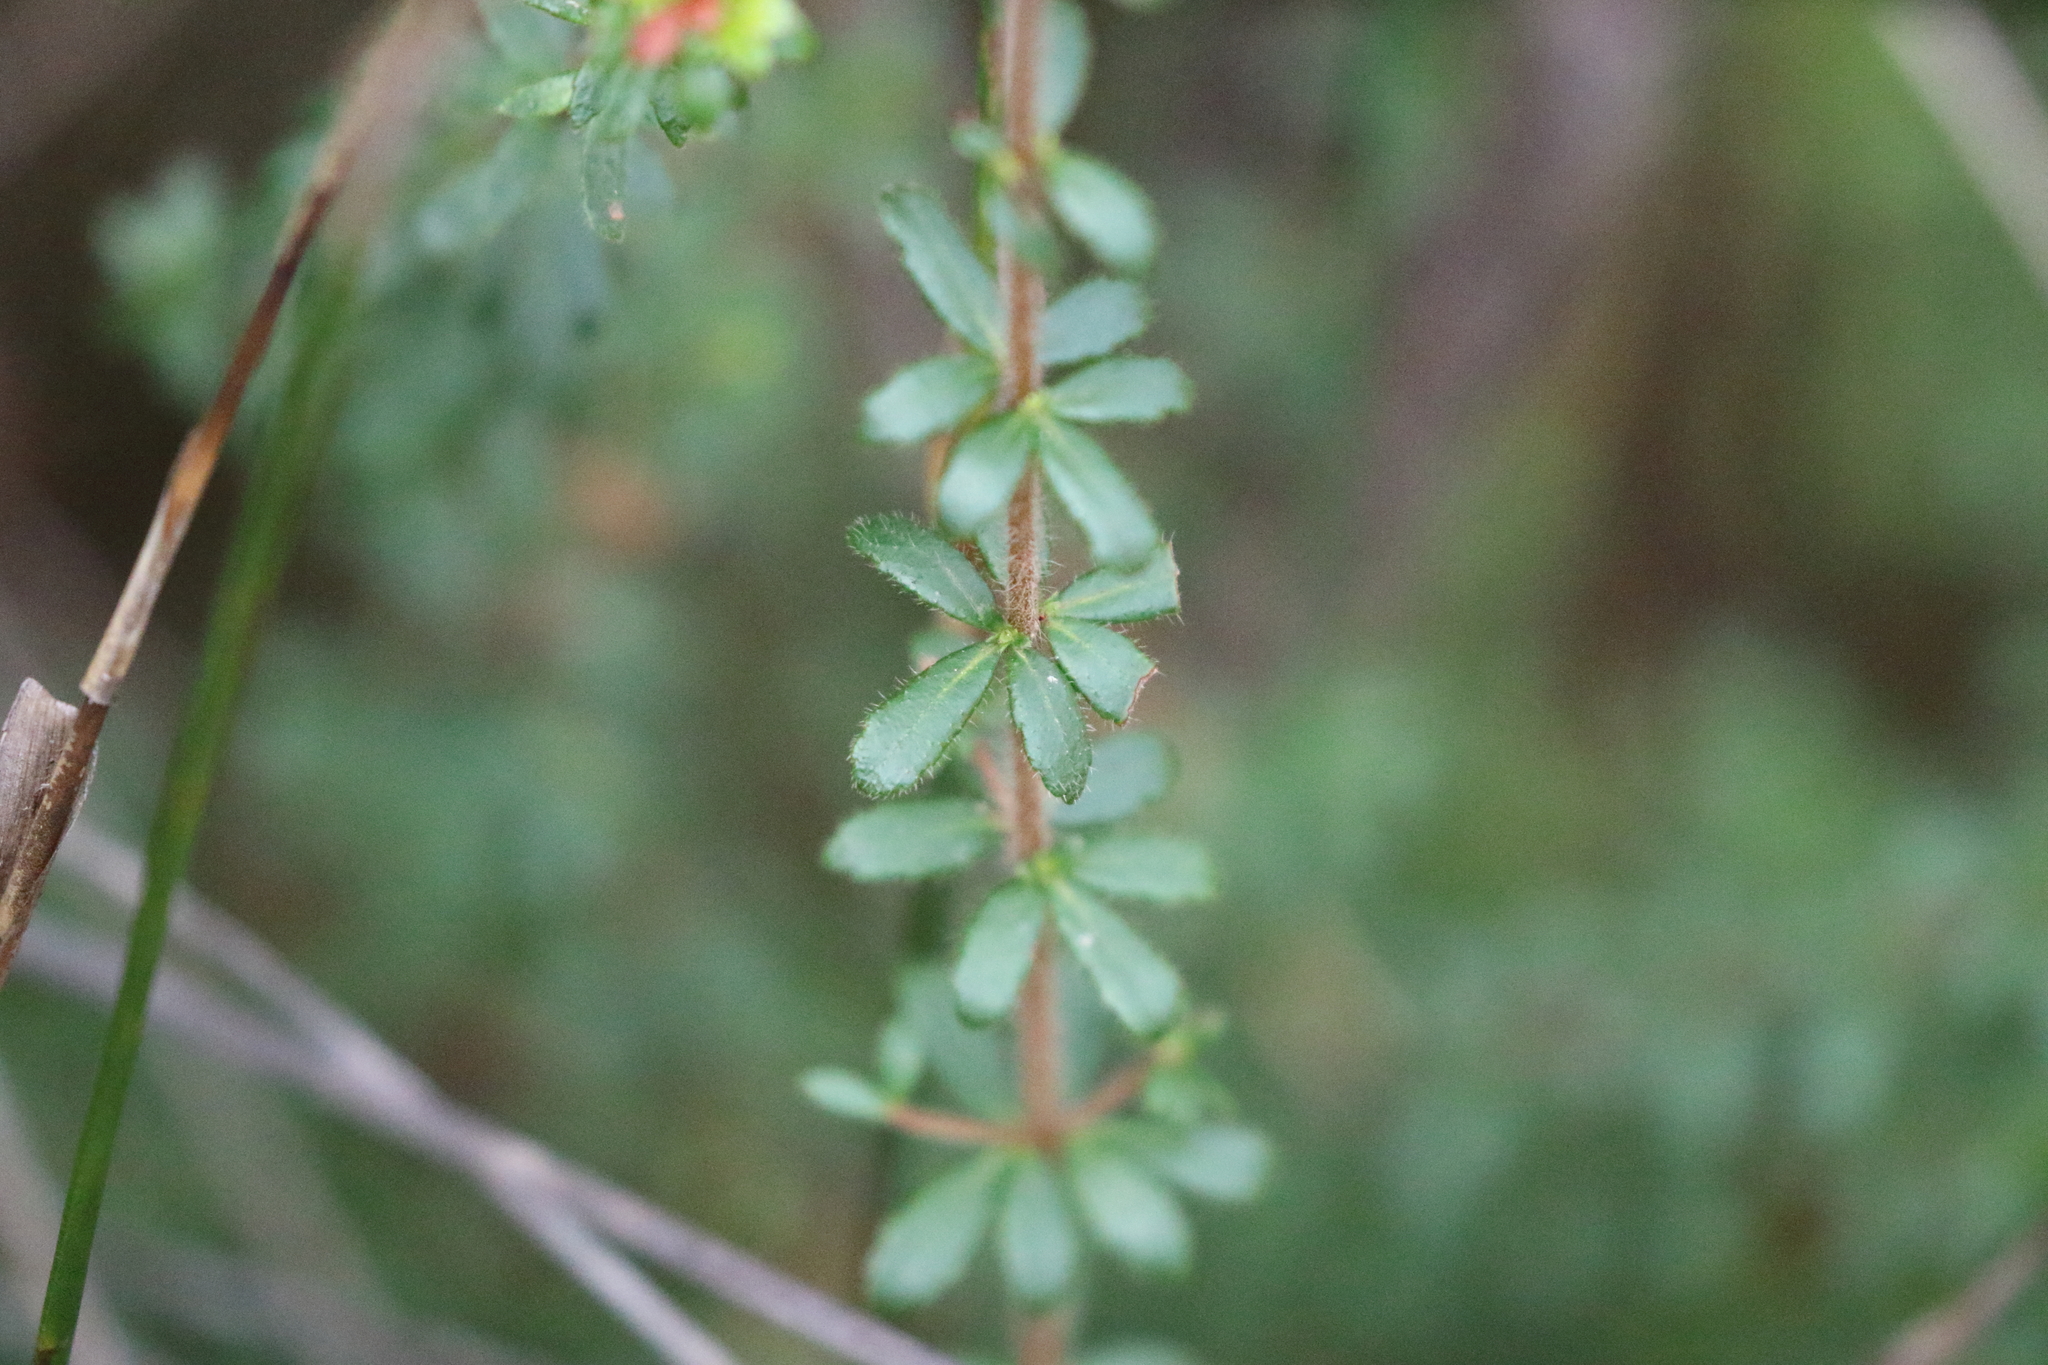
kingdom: Plantae
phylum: Tracheophyta
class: Magnoliopsida
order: Oxalidales
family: Cunoniaceae
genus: Bauera
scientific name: Bauera rubioides
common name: River-rose
